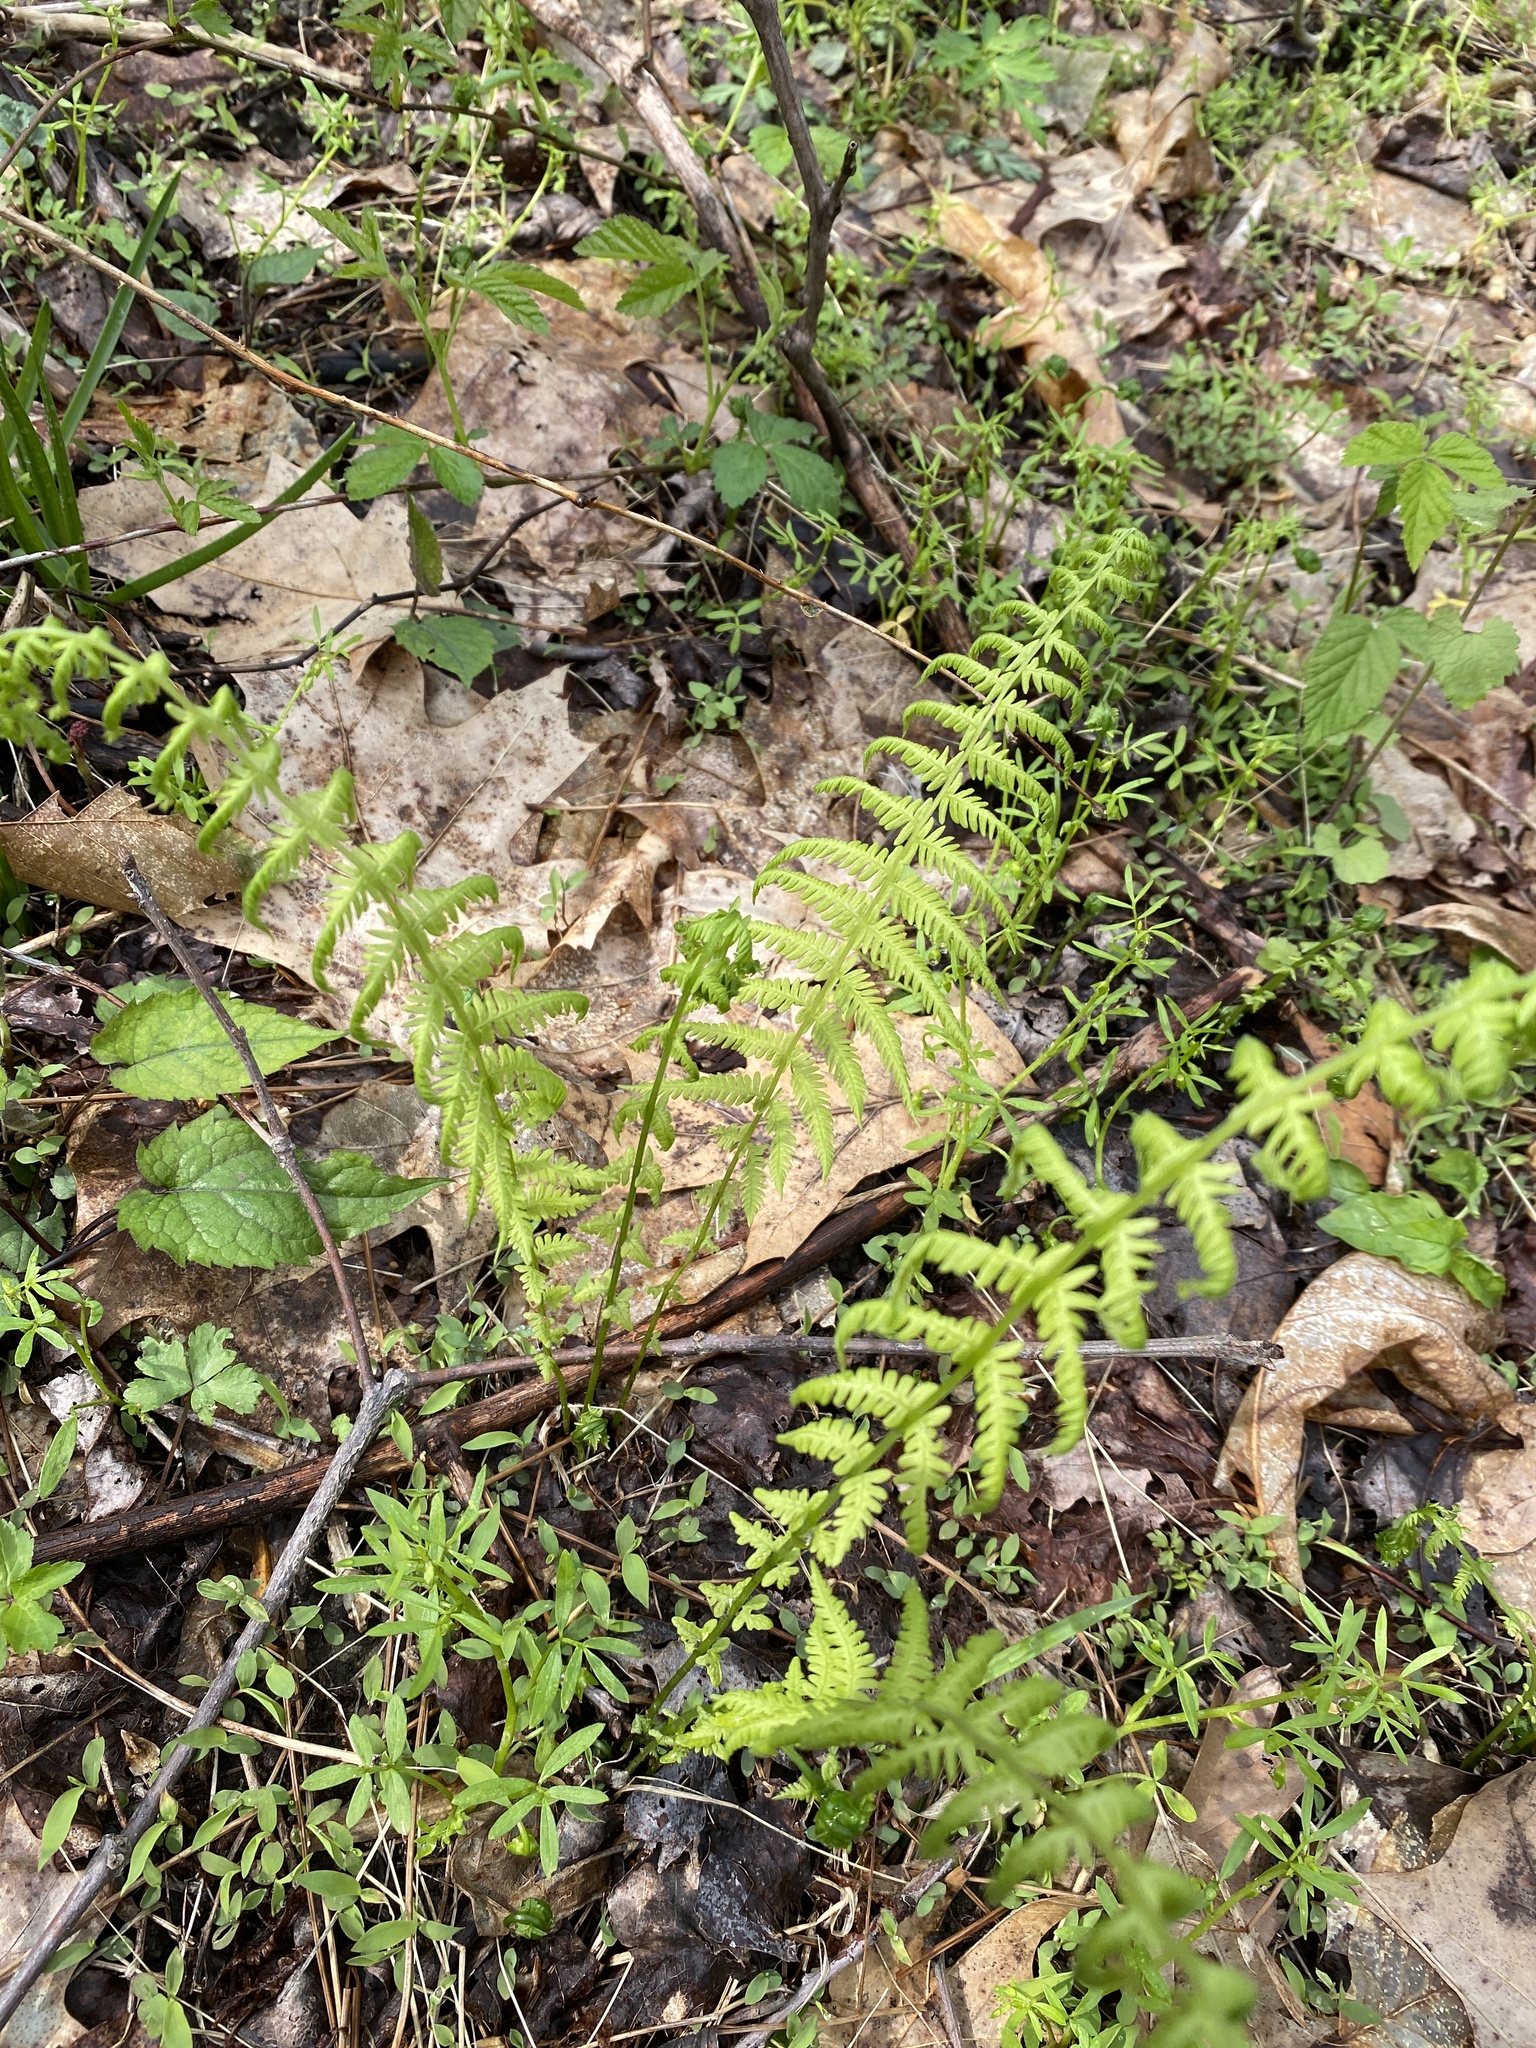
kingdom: Plantae
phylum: Tracheophyta
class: Polypodiopsida
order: Polypodiales
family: Thelypteridaceae
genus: Amauropelta
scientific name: Amauropelta noveboracensis
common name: New york fern
